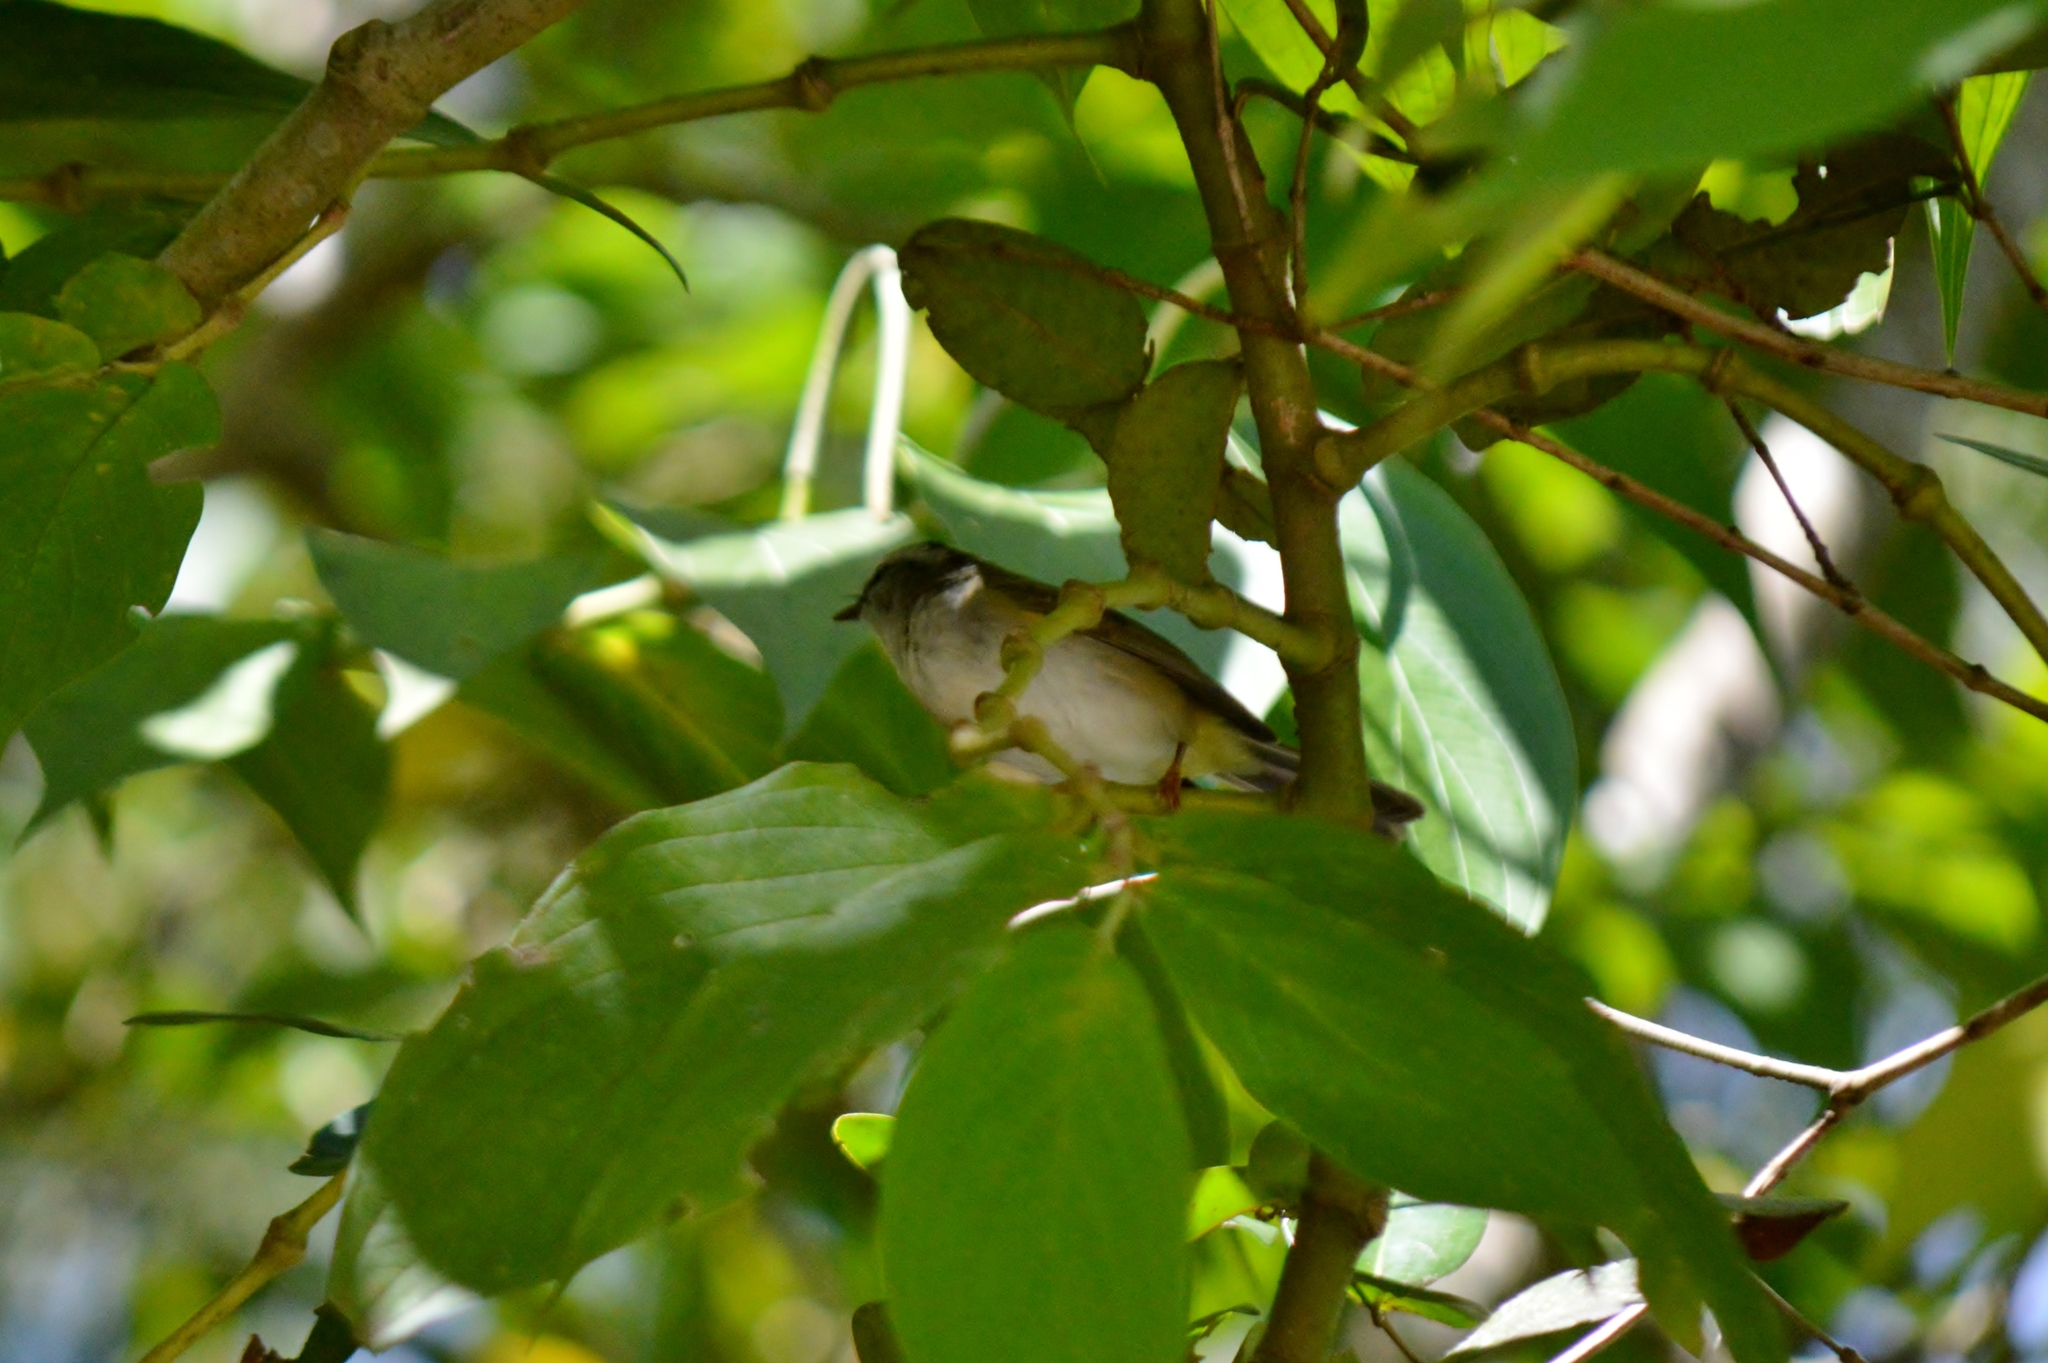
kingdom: Animalia
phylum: Chordata
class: Aves
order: Passeriformes
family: Parulidae
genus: Basileuterus
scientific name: Basileuterus culicivorus
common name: Golden-crowned warbler
